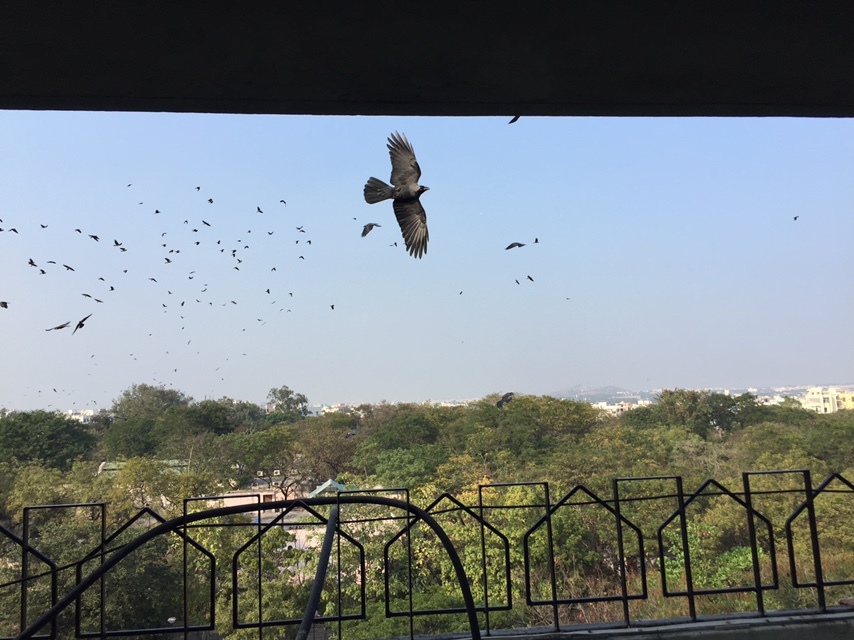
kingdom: Animalia
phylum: Chordata
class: Aves
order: Passeriformes
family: Corvidae
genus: Corvus
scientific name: Corvus splendens
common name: House crow
